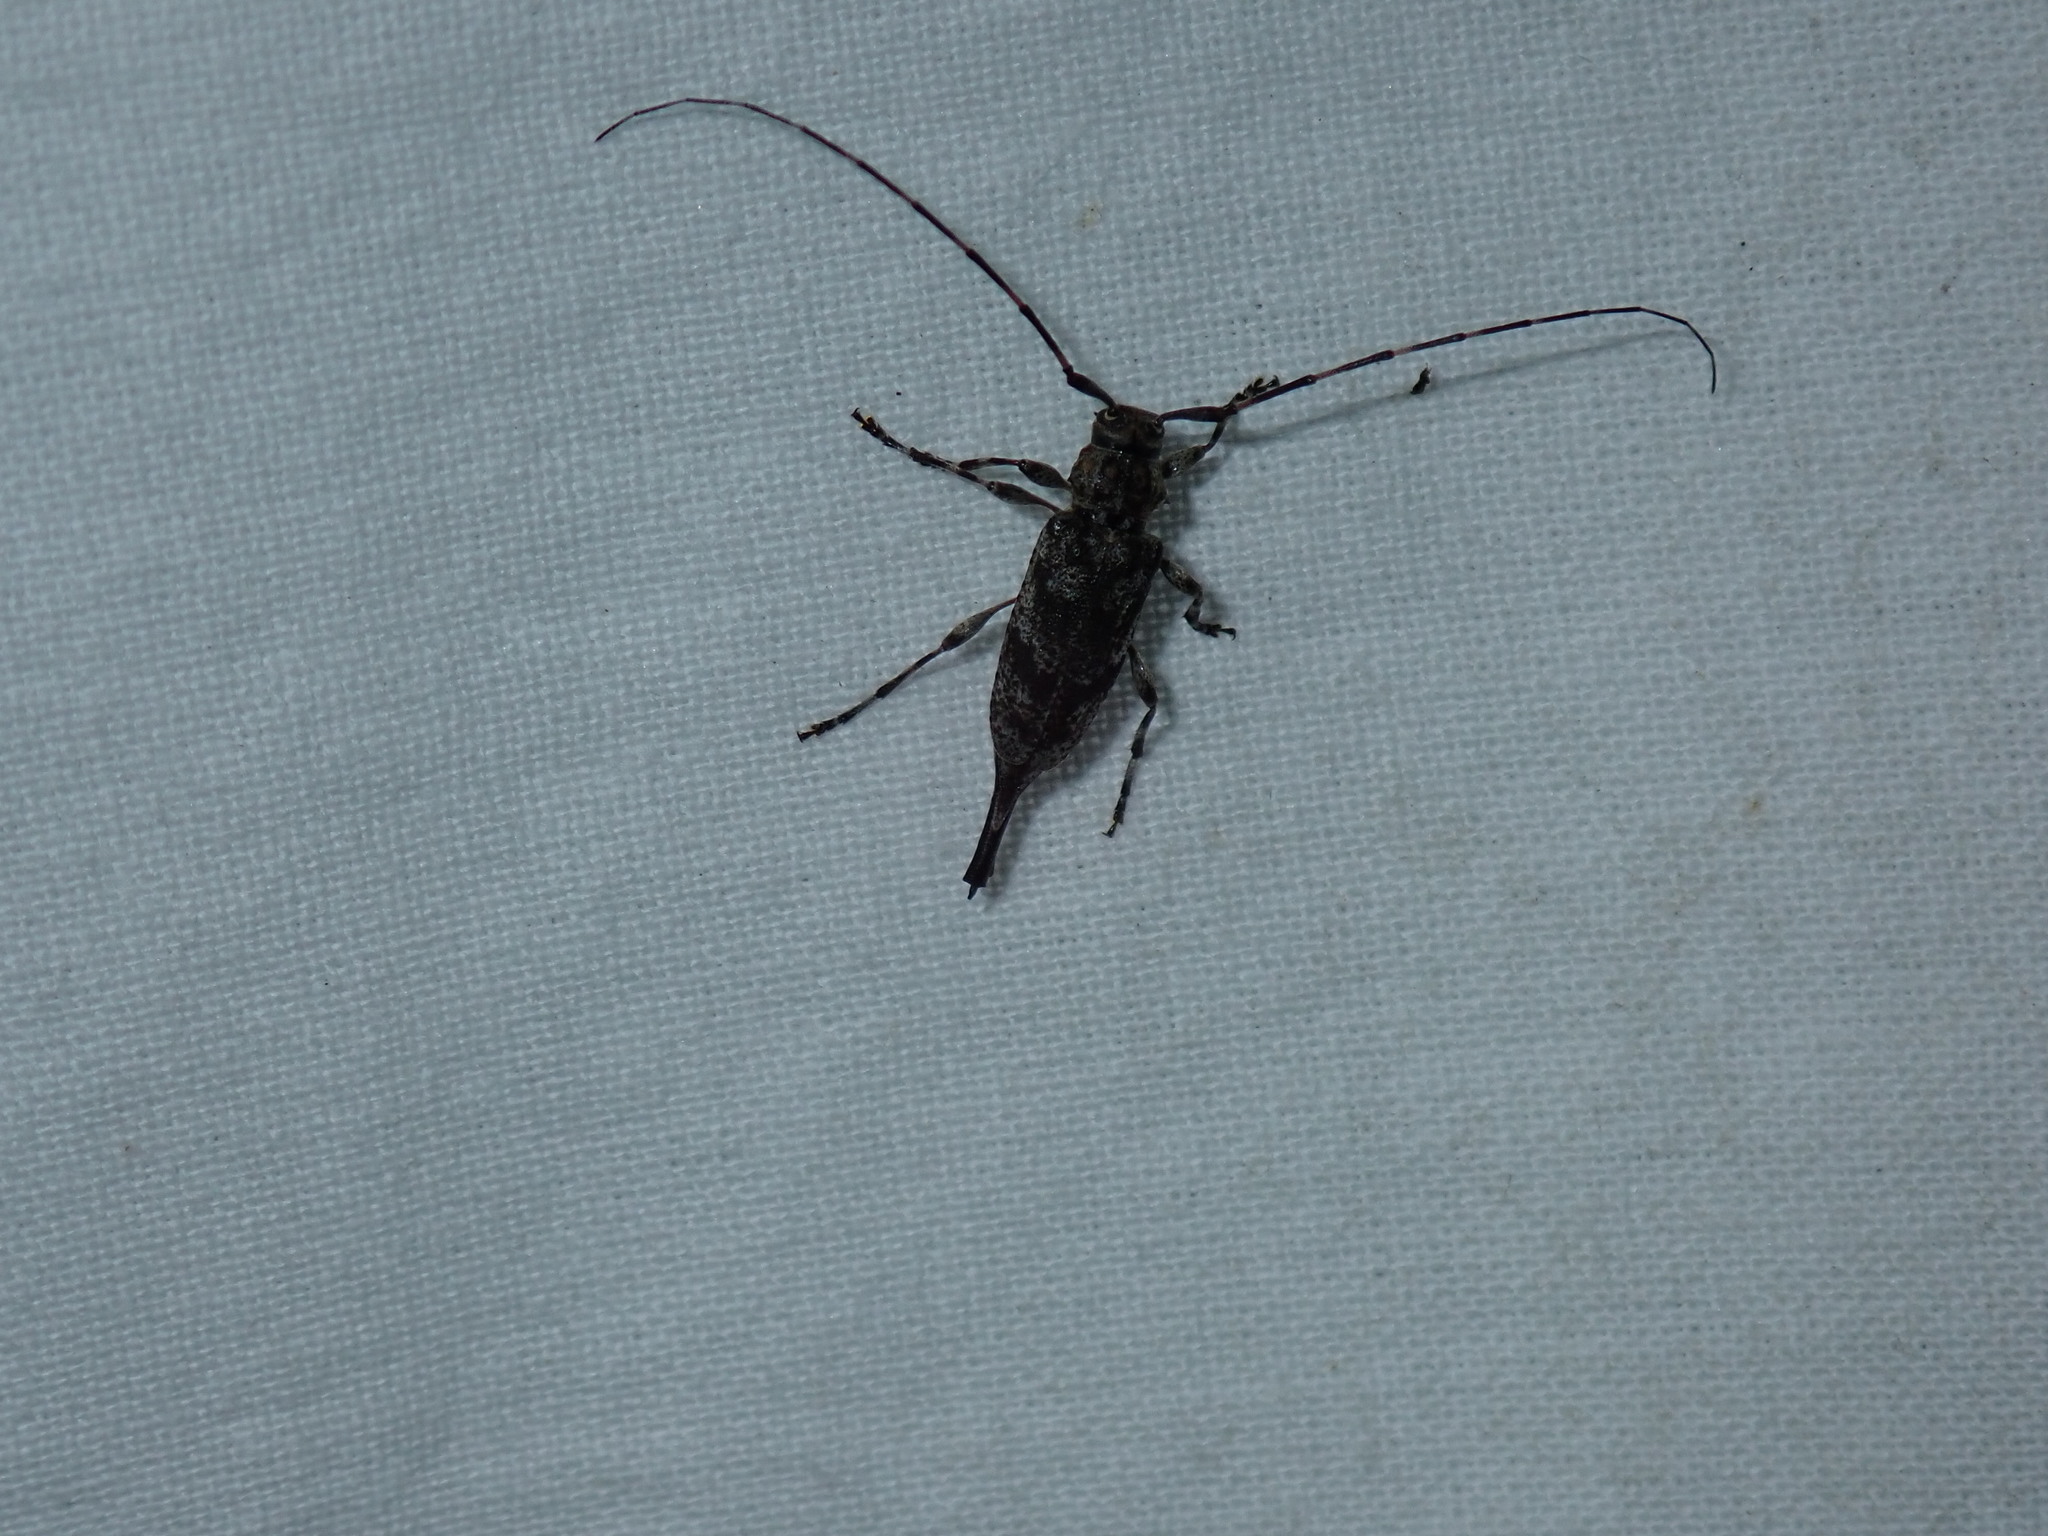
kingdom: Animalia
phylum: Arthropoda
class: Insecta
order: Coleoptera
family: Cerambycidae
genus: Graphisurus
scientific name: Graphisurus fasciatus
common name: Banded graphisurus
